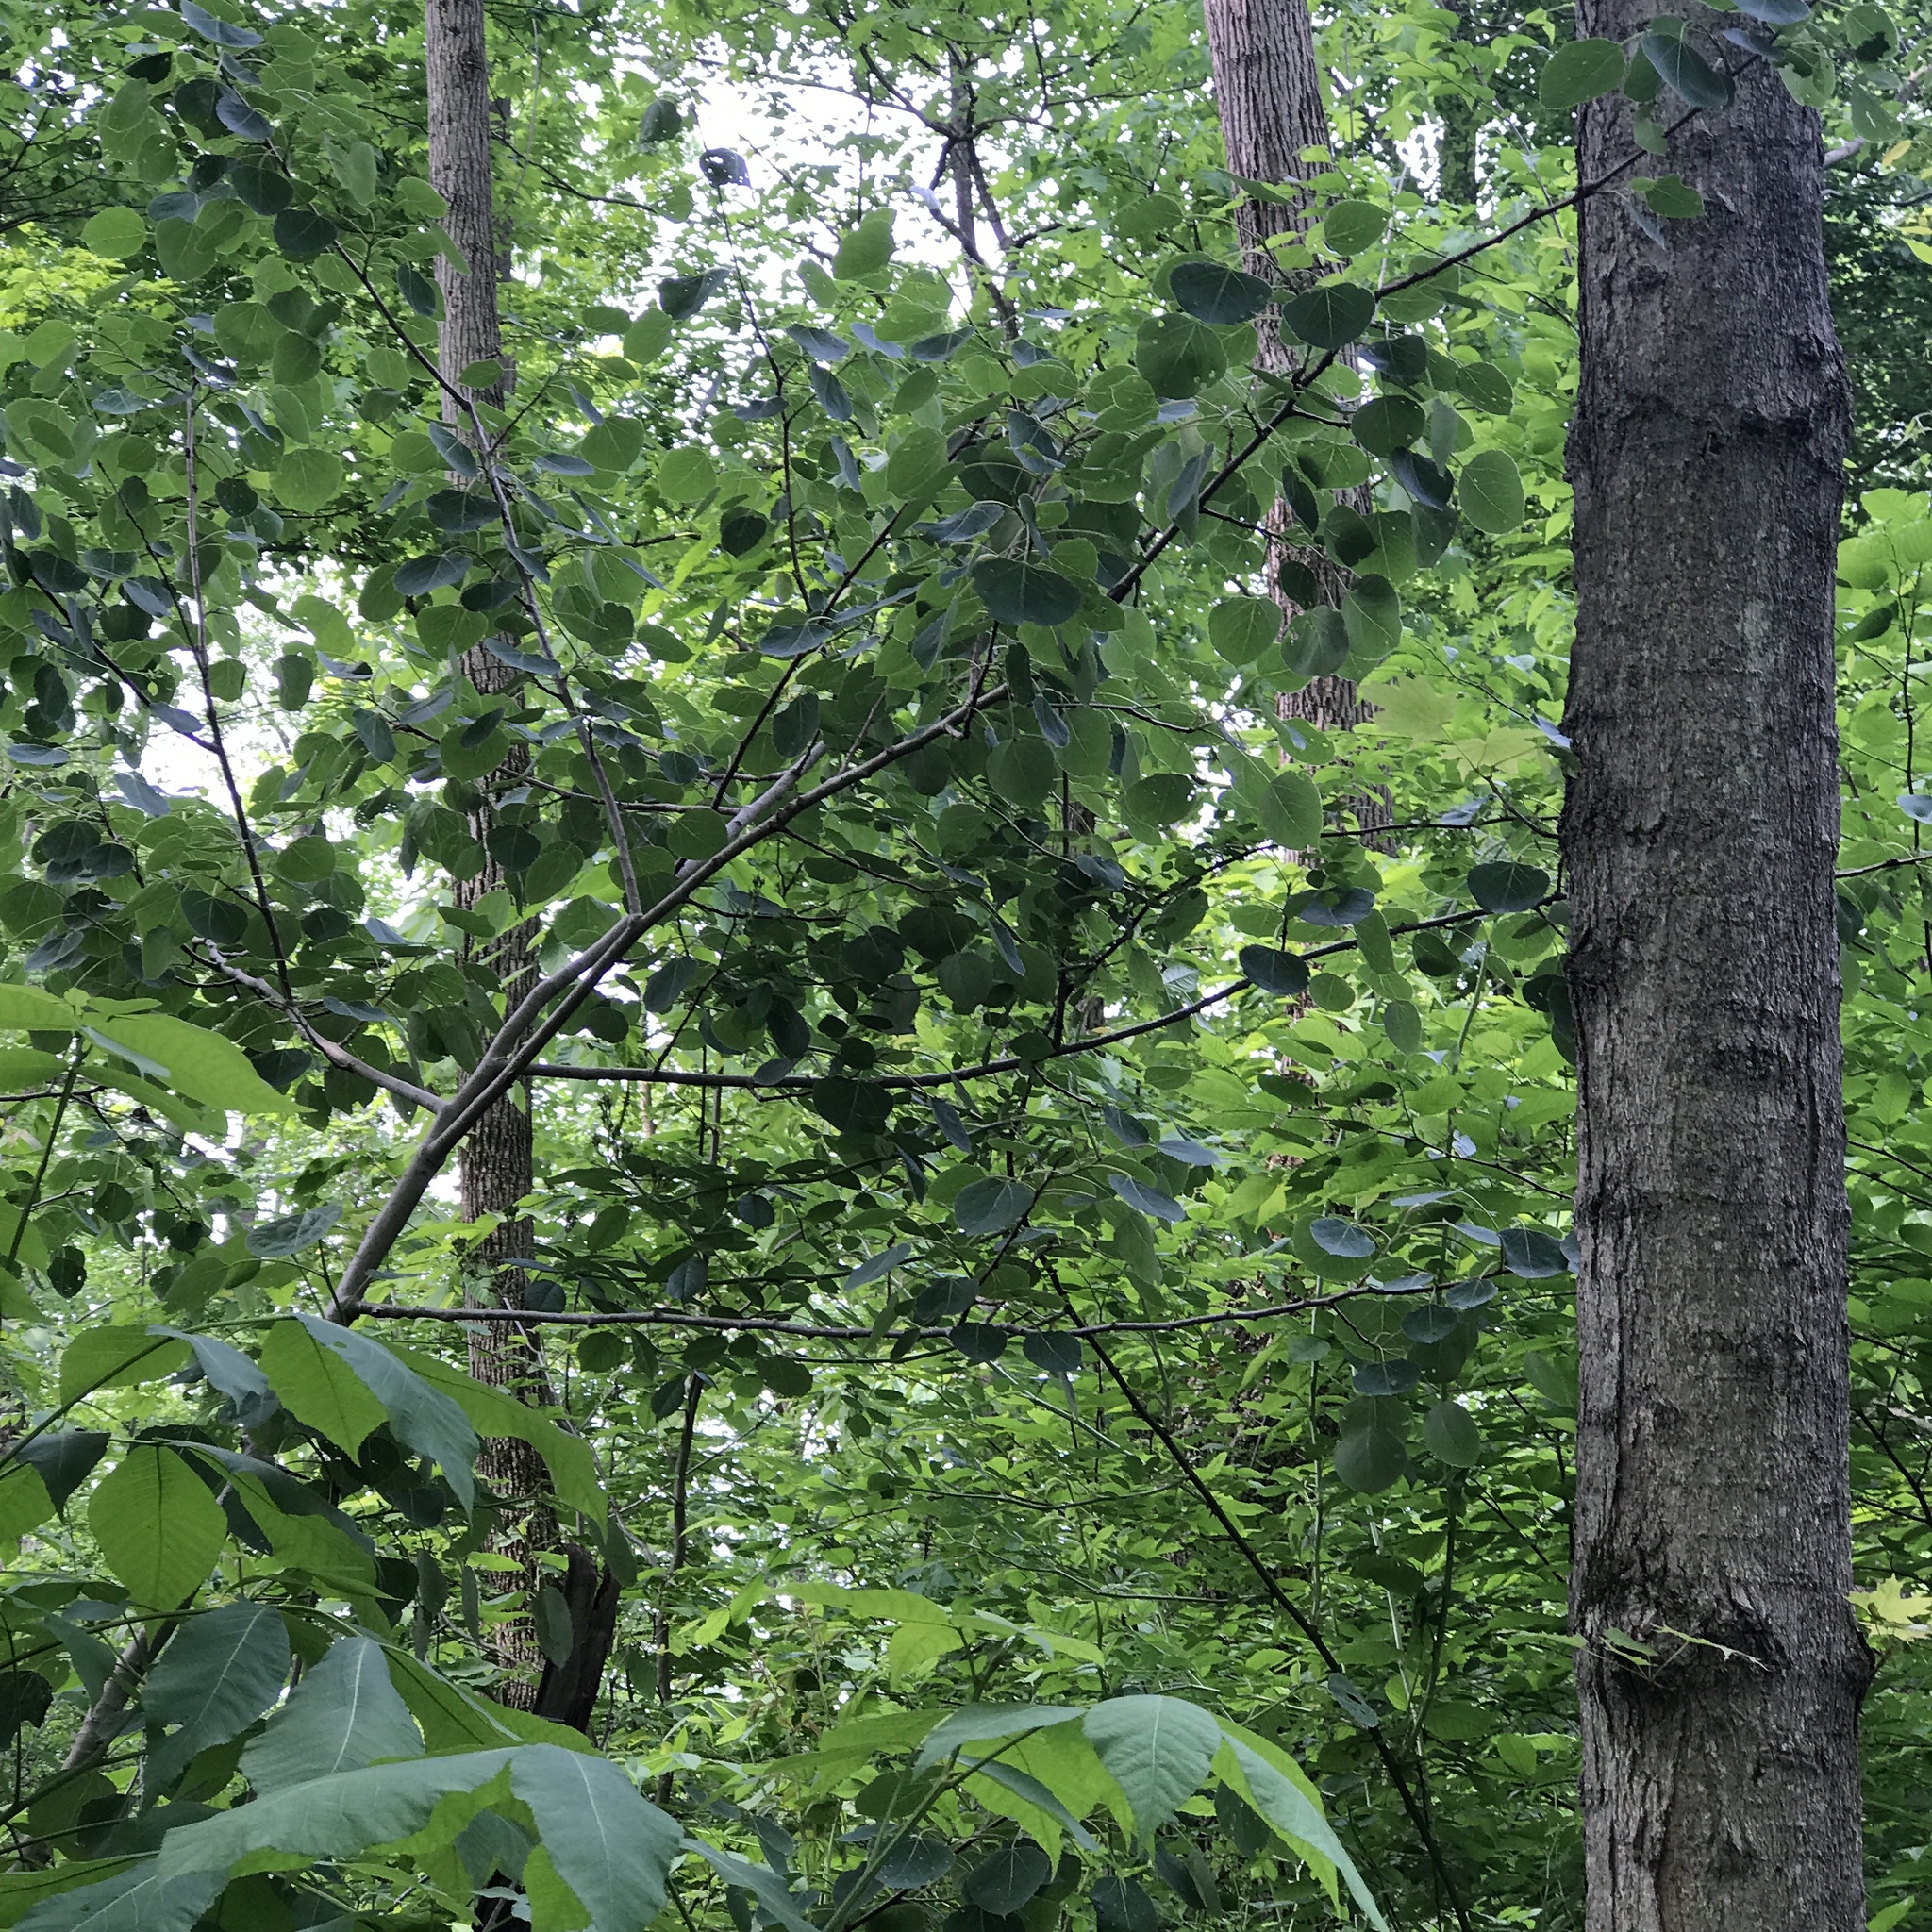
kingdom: Plantae
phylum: Tracheophyta
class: Magnoliopsida
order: Malpighiales
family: Salicaceae
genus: Populus
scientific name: Populus tremuloides
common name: Quaking aspen
